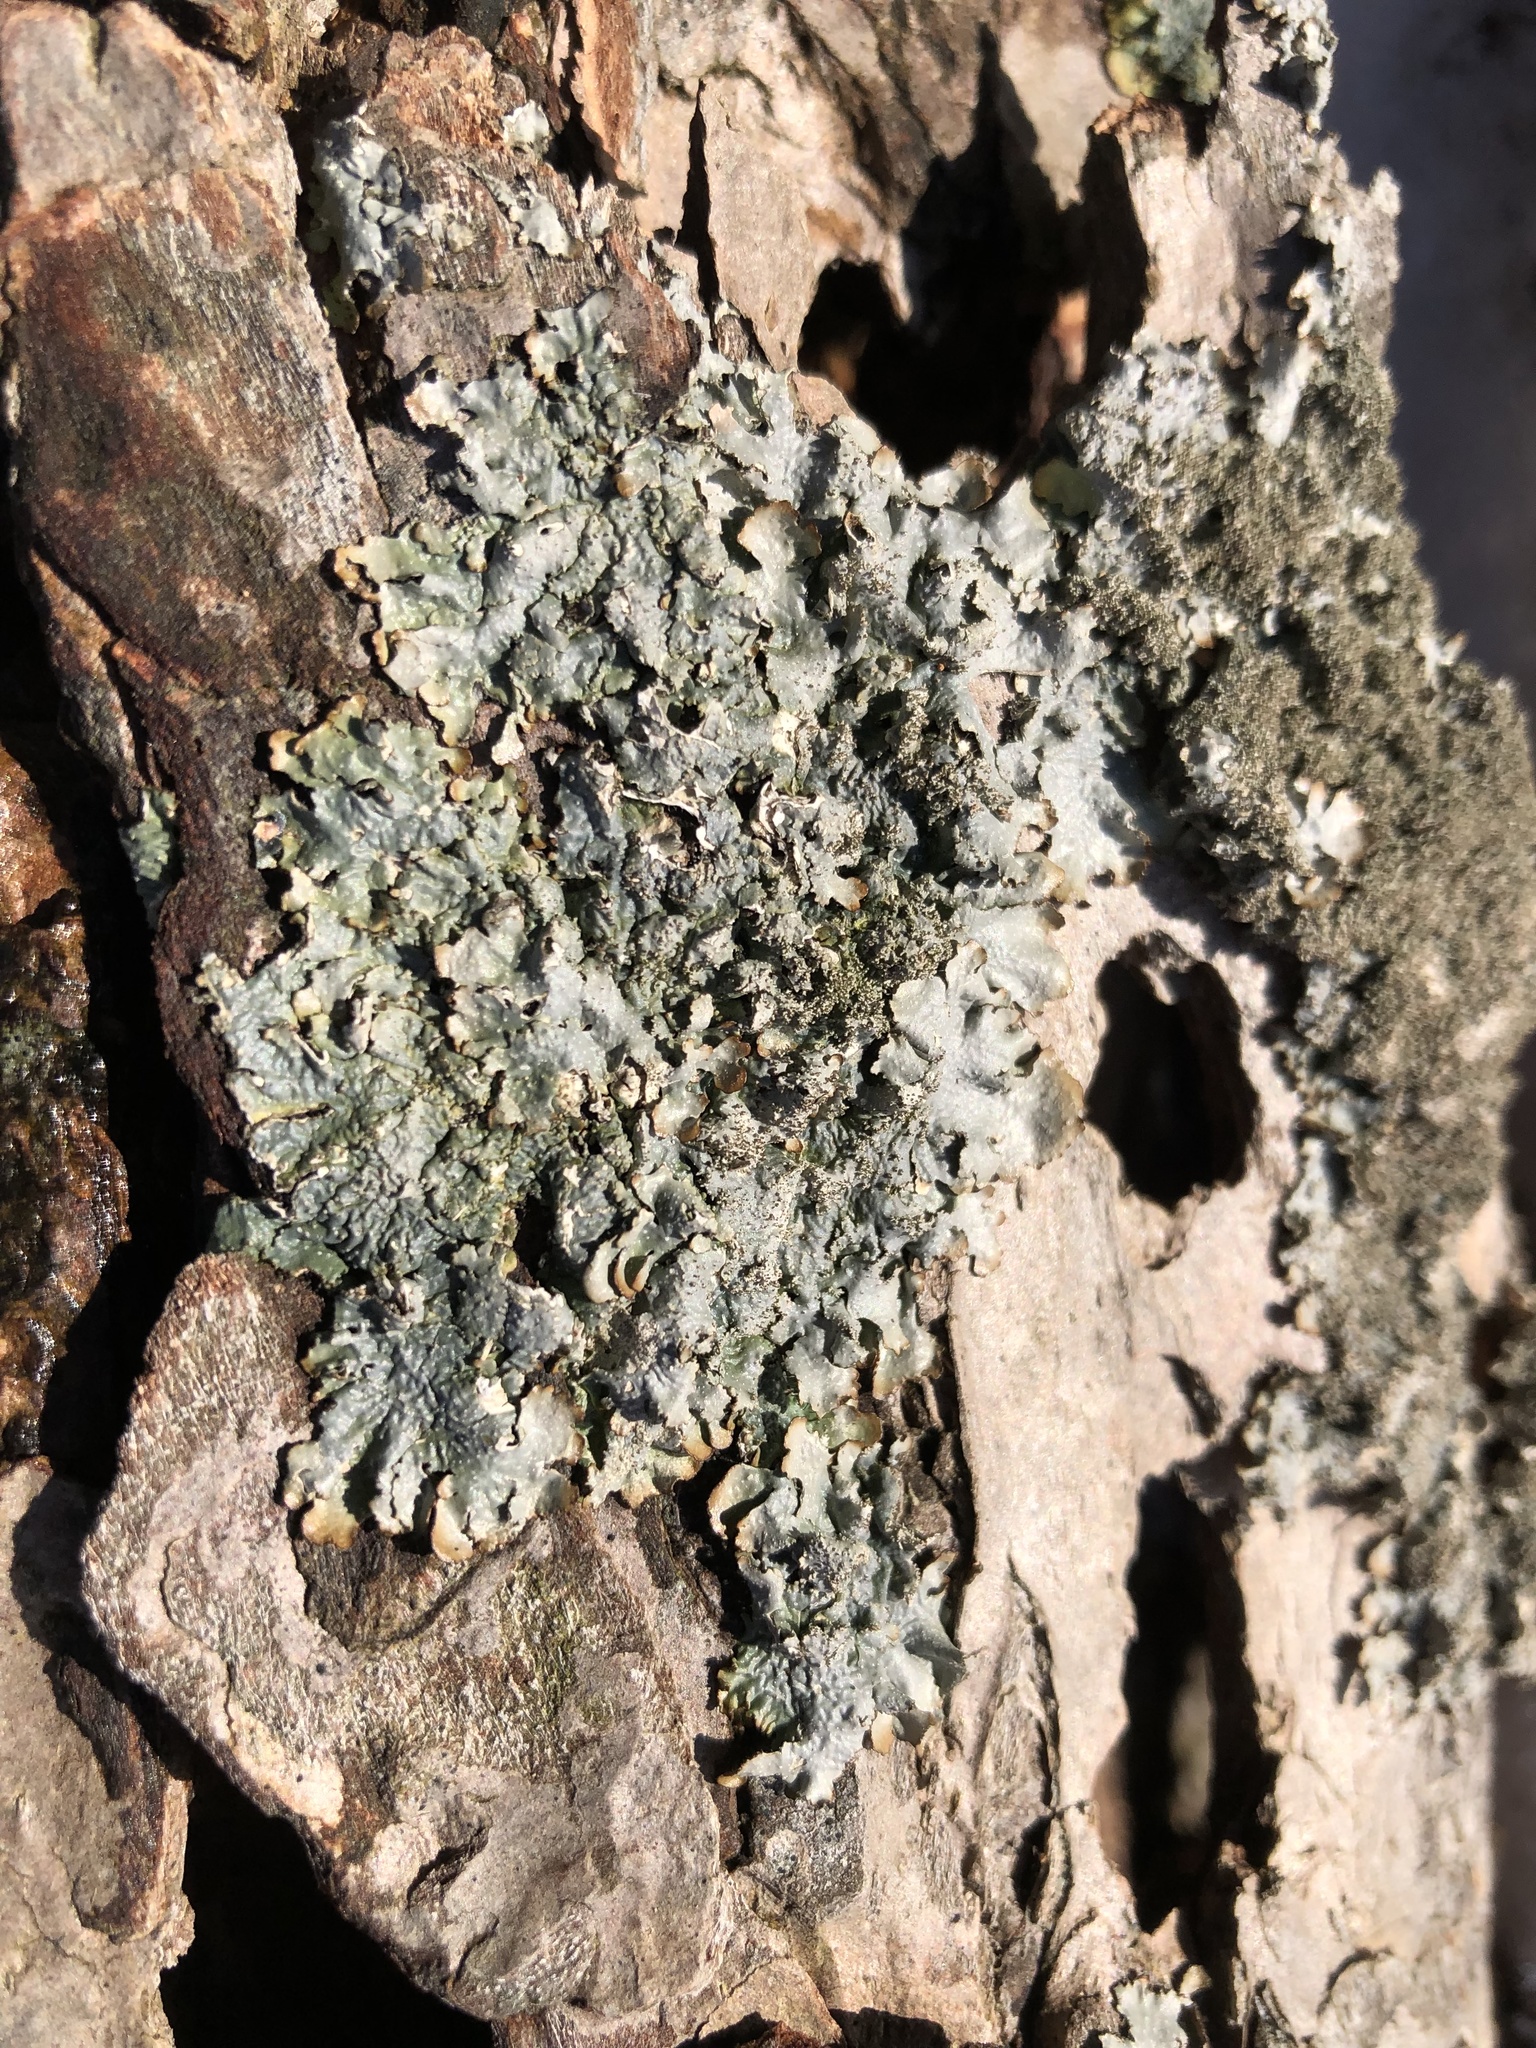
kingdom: Fungi
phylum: Ascomycota
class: Lecanoromycetes
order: Lecanorales
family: Parmeliaceae
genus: Punctelia
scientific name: Punctelia rudecta
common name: Rough speckled shield lichen
